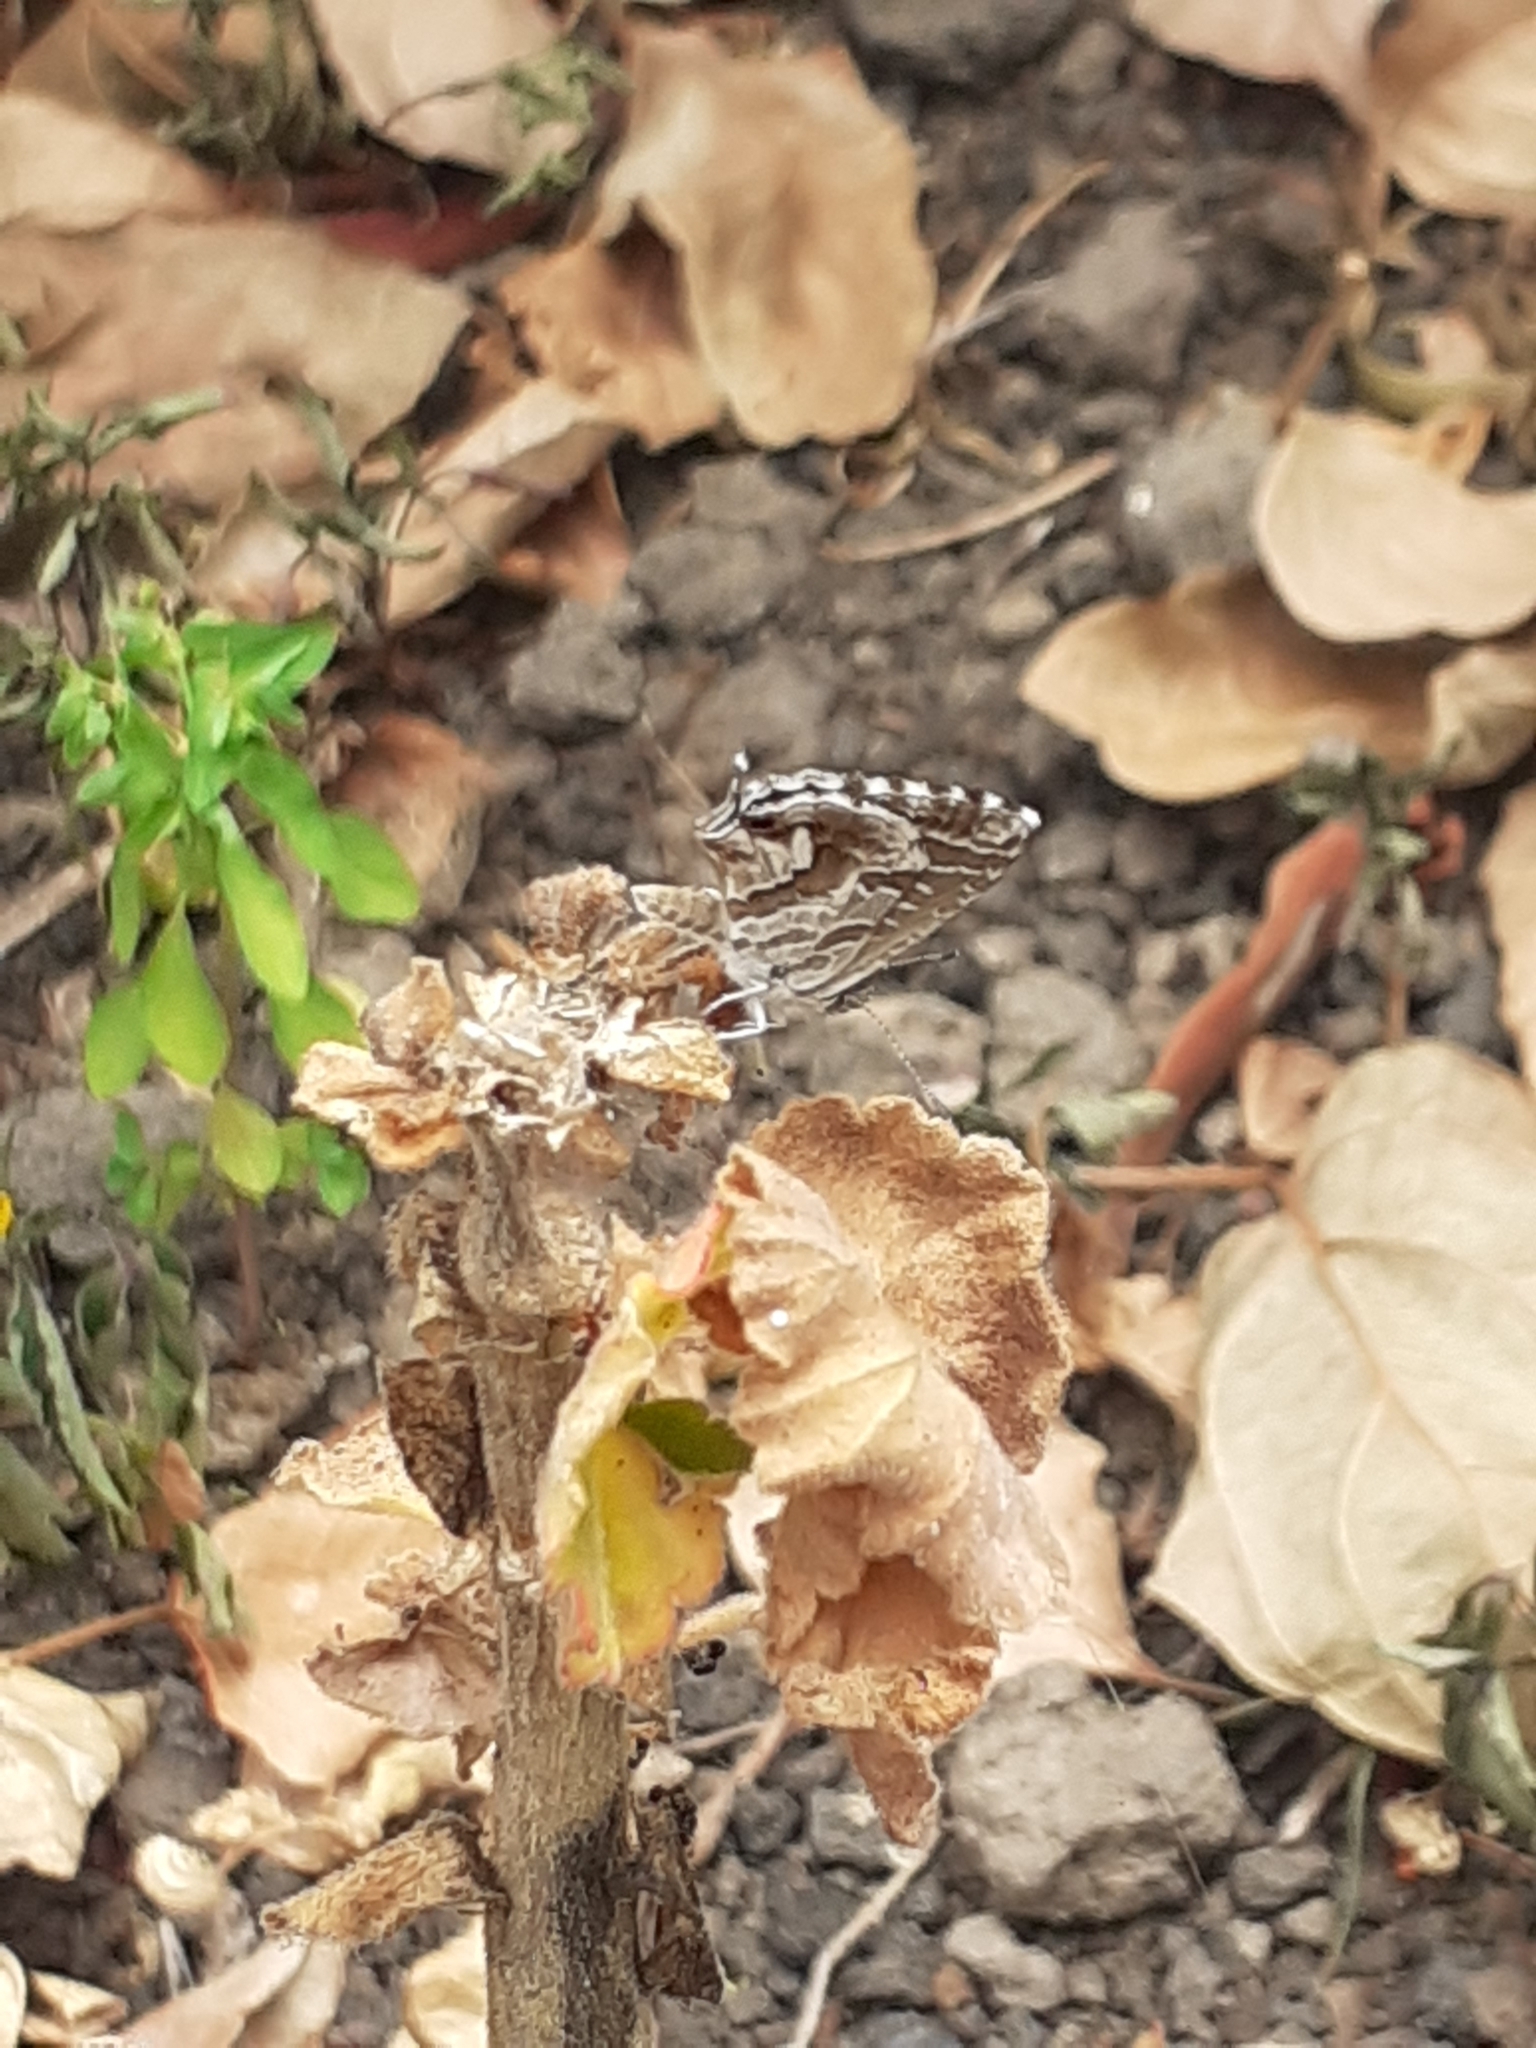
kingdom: Animalia
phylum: Arthropoda
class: Insecta
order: Lepidoptera
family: Lycaenidae
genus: Cacyreus
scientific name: Cacyreus marshalli
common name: Geranium bronze
